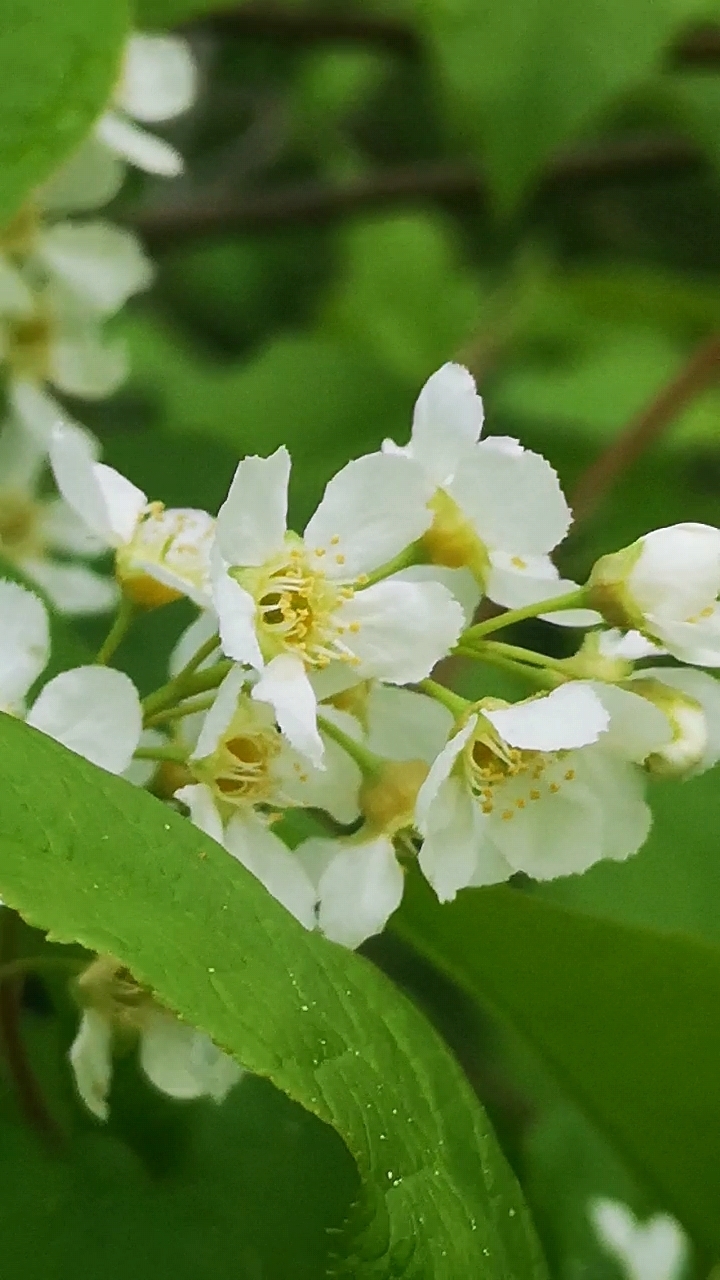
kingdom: Plantae
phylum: Tracheophyta
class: Magnoliopsida
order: Rosales
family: Rosaceae
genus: Prunus
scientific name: Prunus padus
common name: Bird cherry
